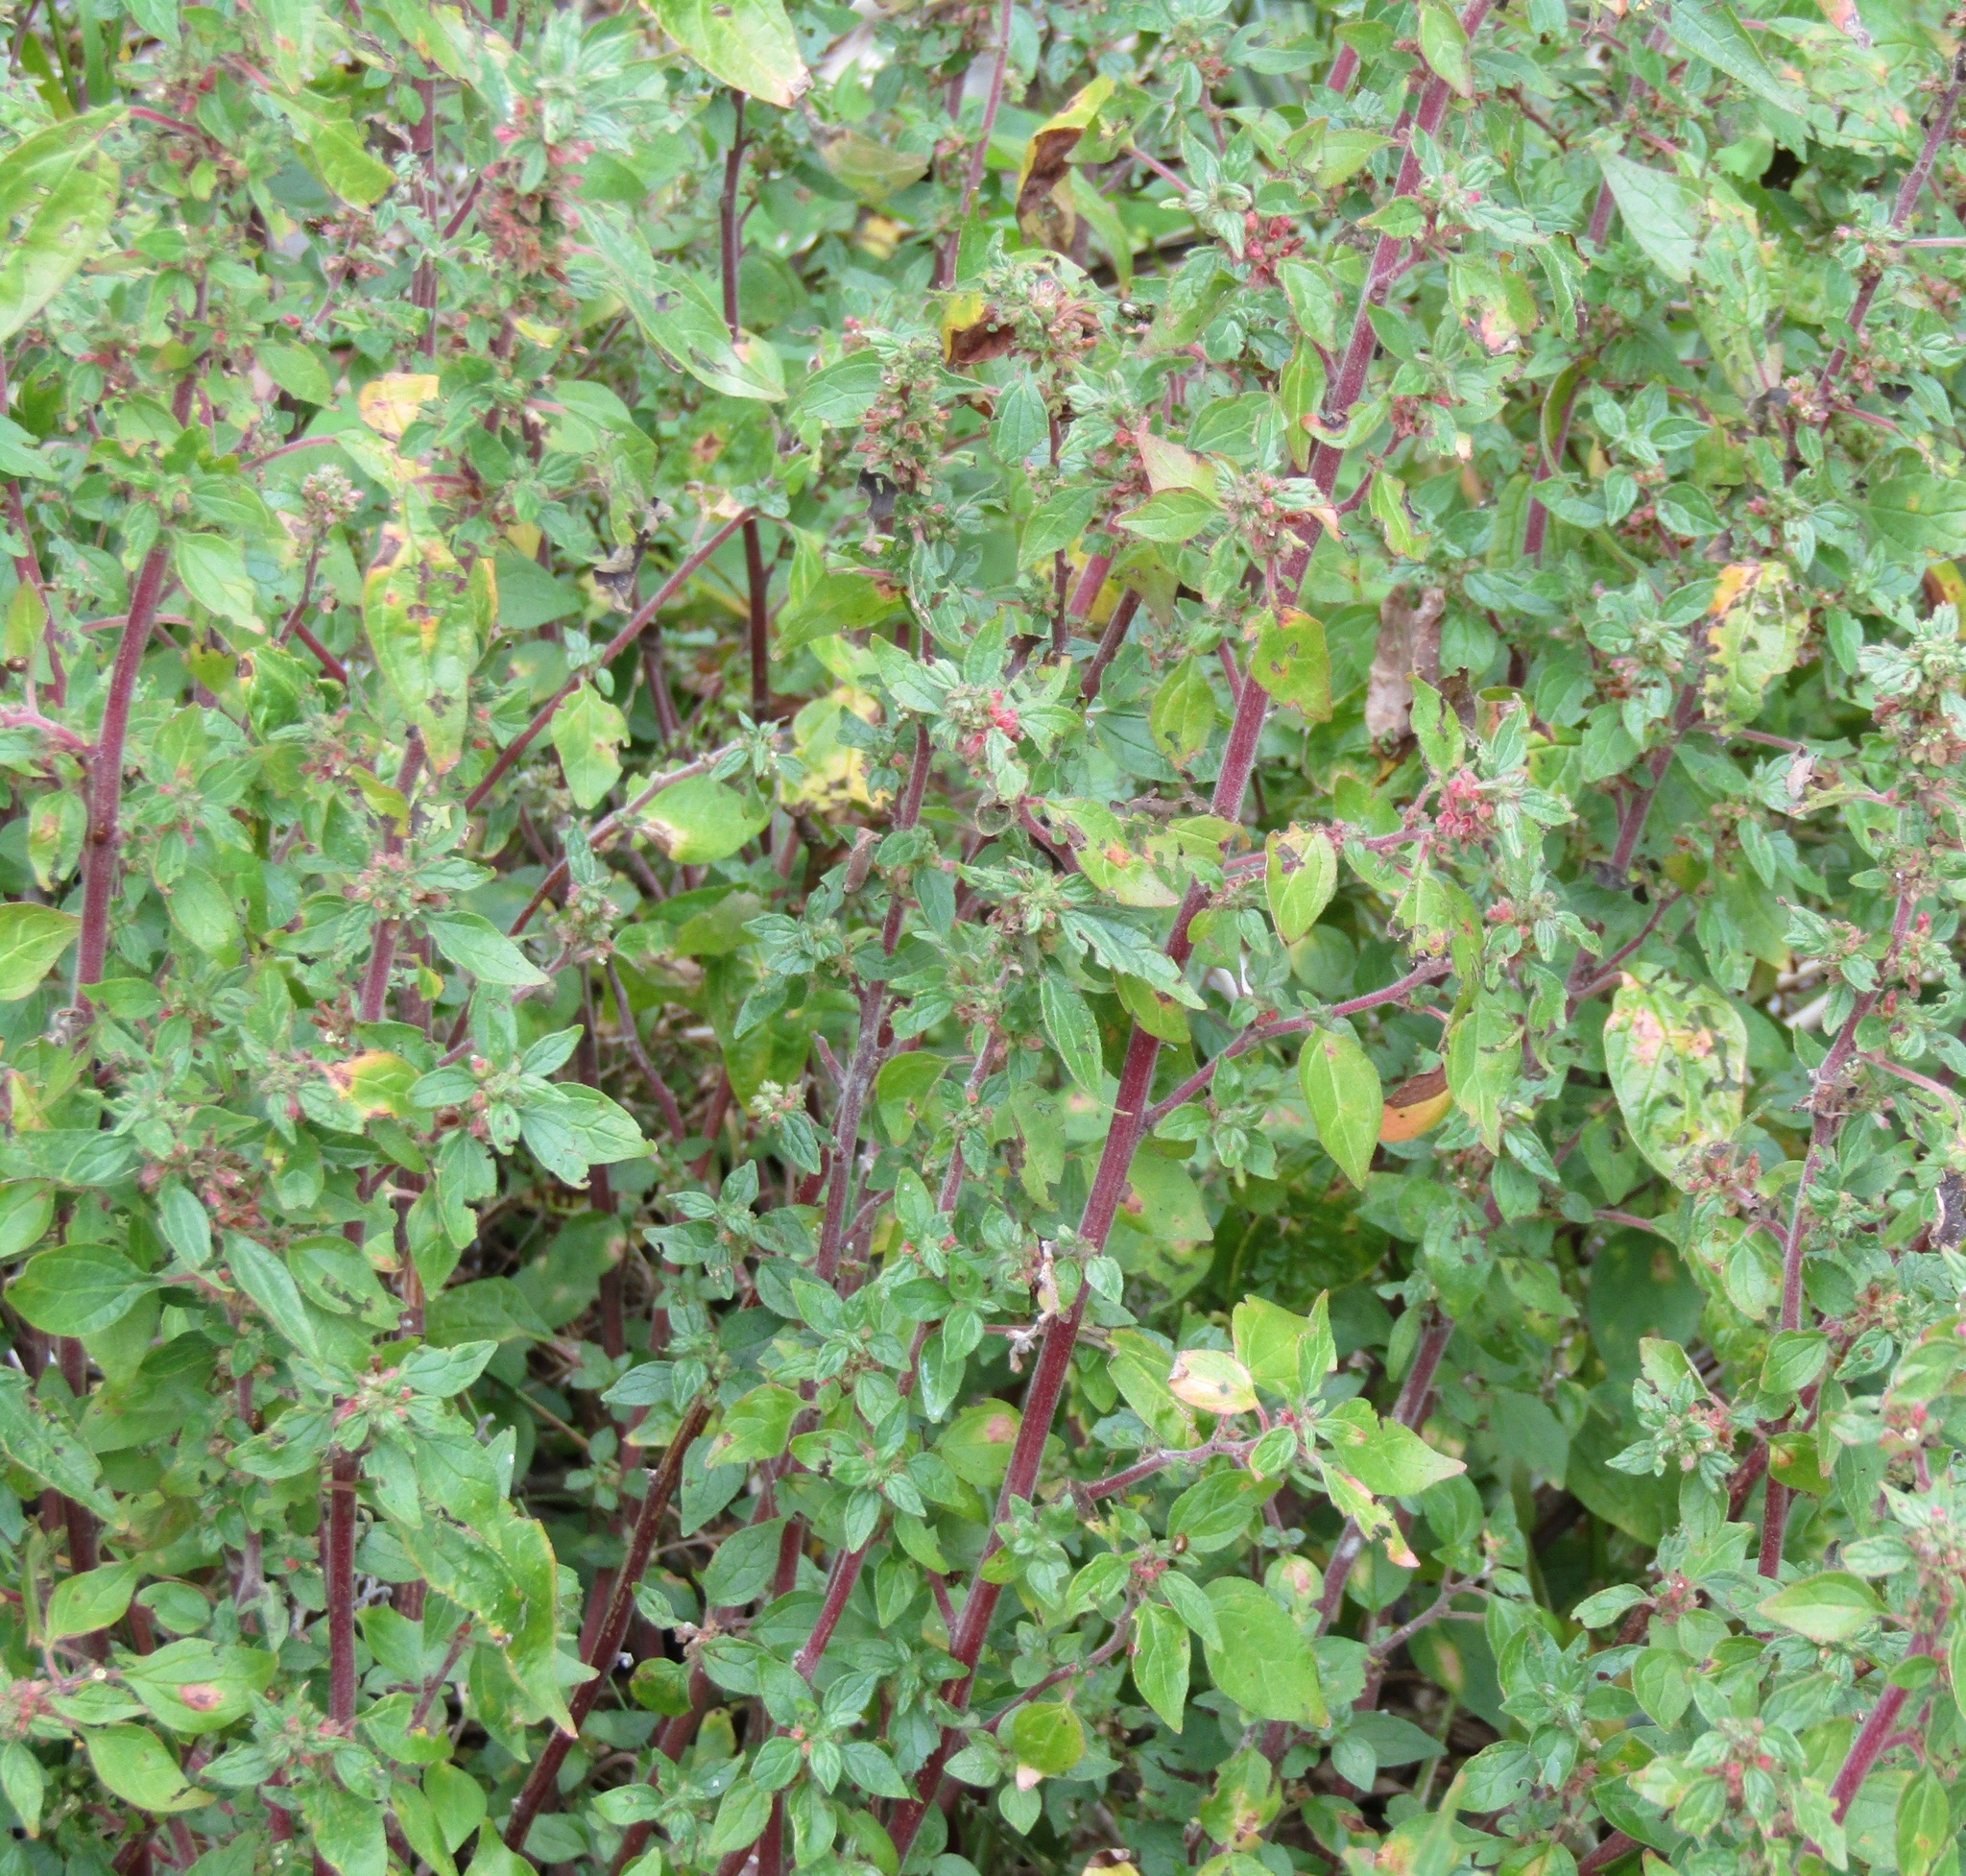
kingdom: Plantae
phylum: Tracheophyta
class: Magnoliopsida
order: Rosales
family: Urticaceae
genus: Parietaria
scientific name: Parietaria judaica
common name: Pellitory-of-the-wall
